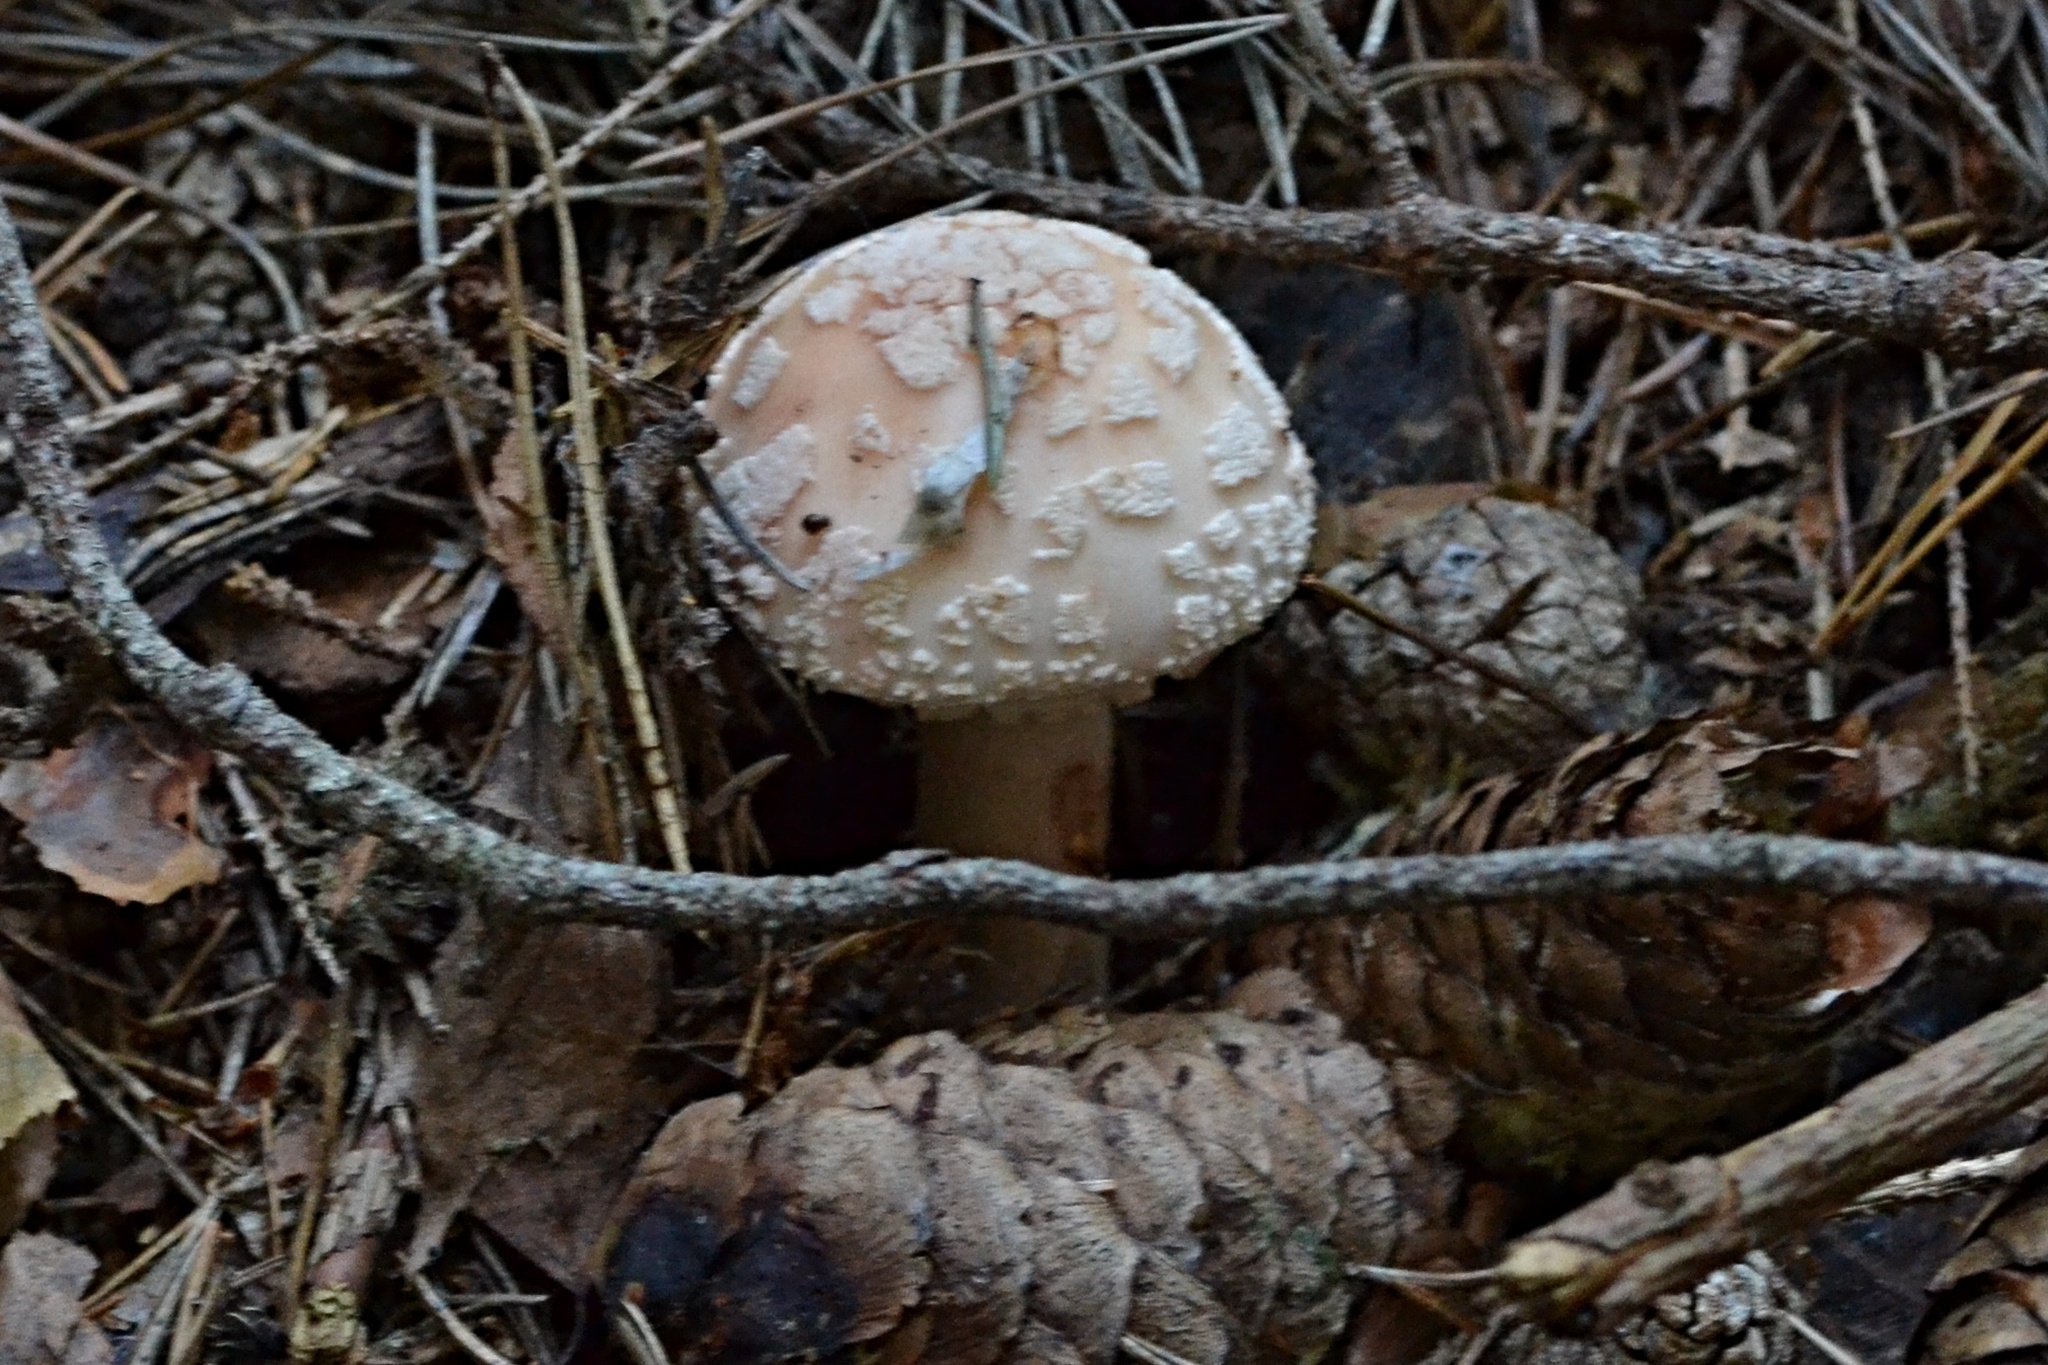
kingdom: Fungi
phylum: Basidiomycota
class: Agaricomycetes
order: Agaricales
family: Amanitaceae
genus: Amanita
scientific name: Amanita rubescens
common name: Blusher
